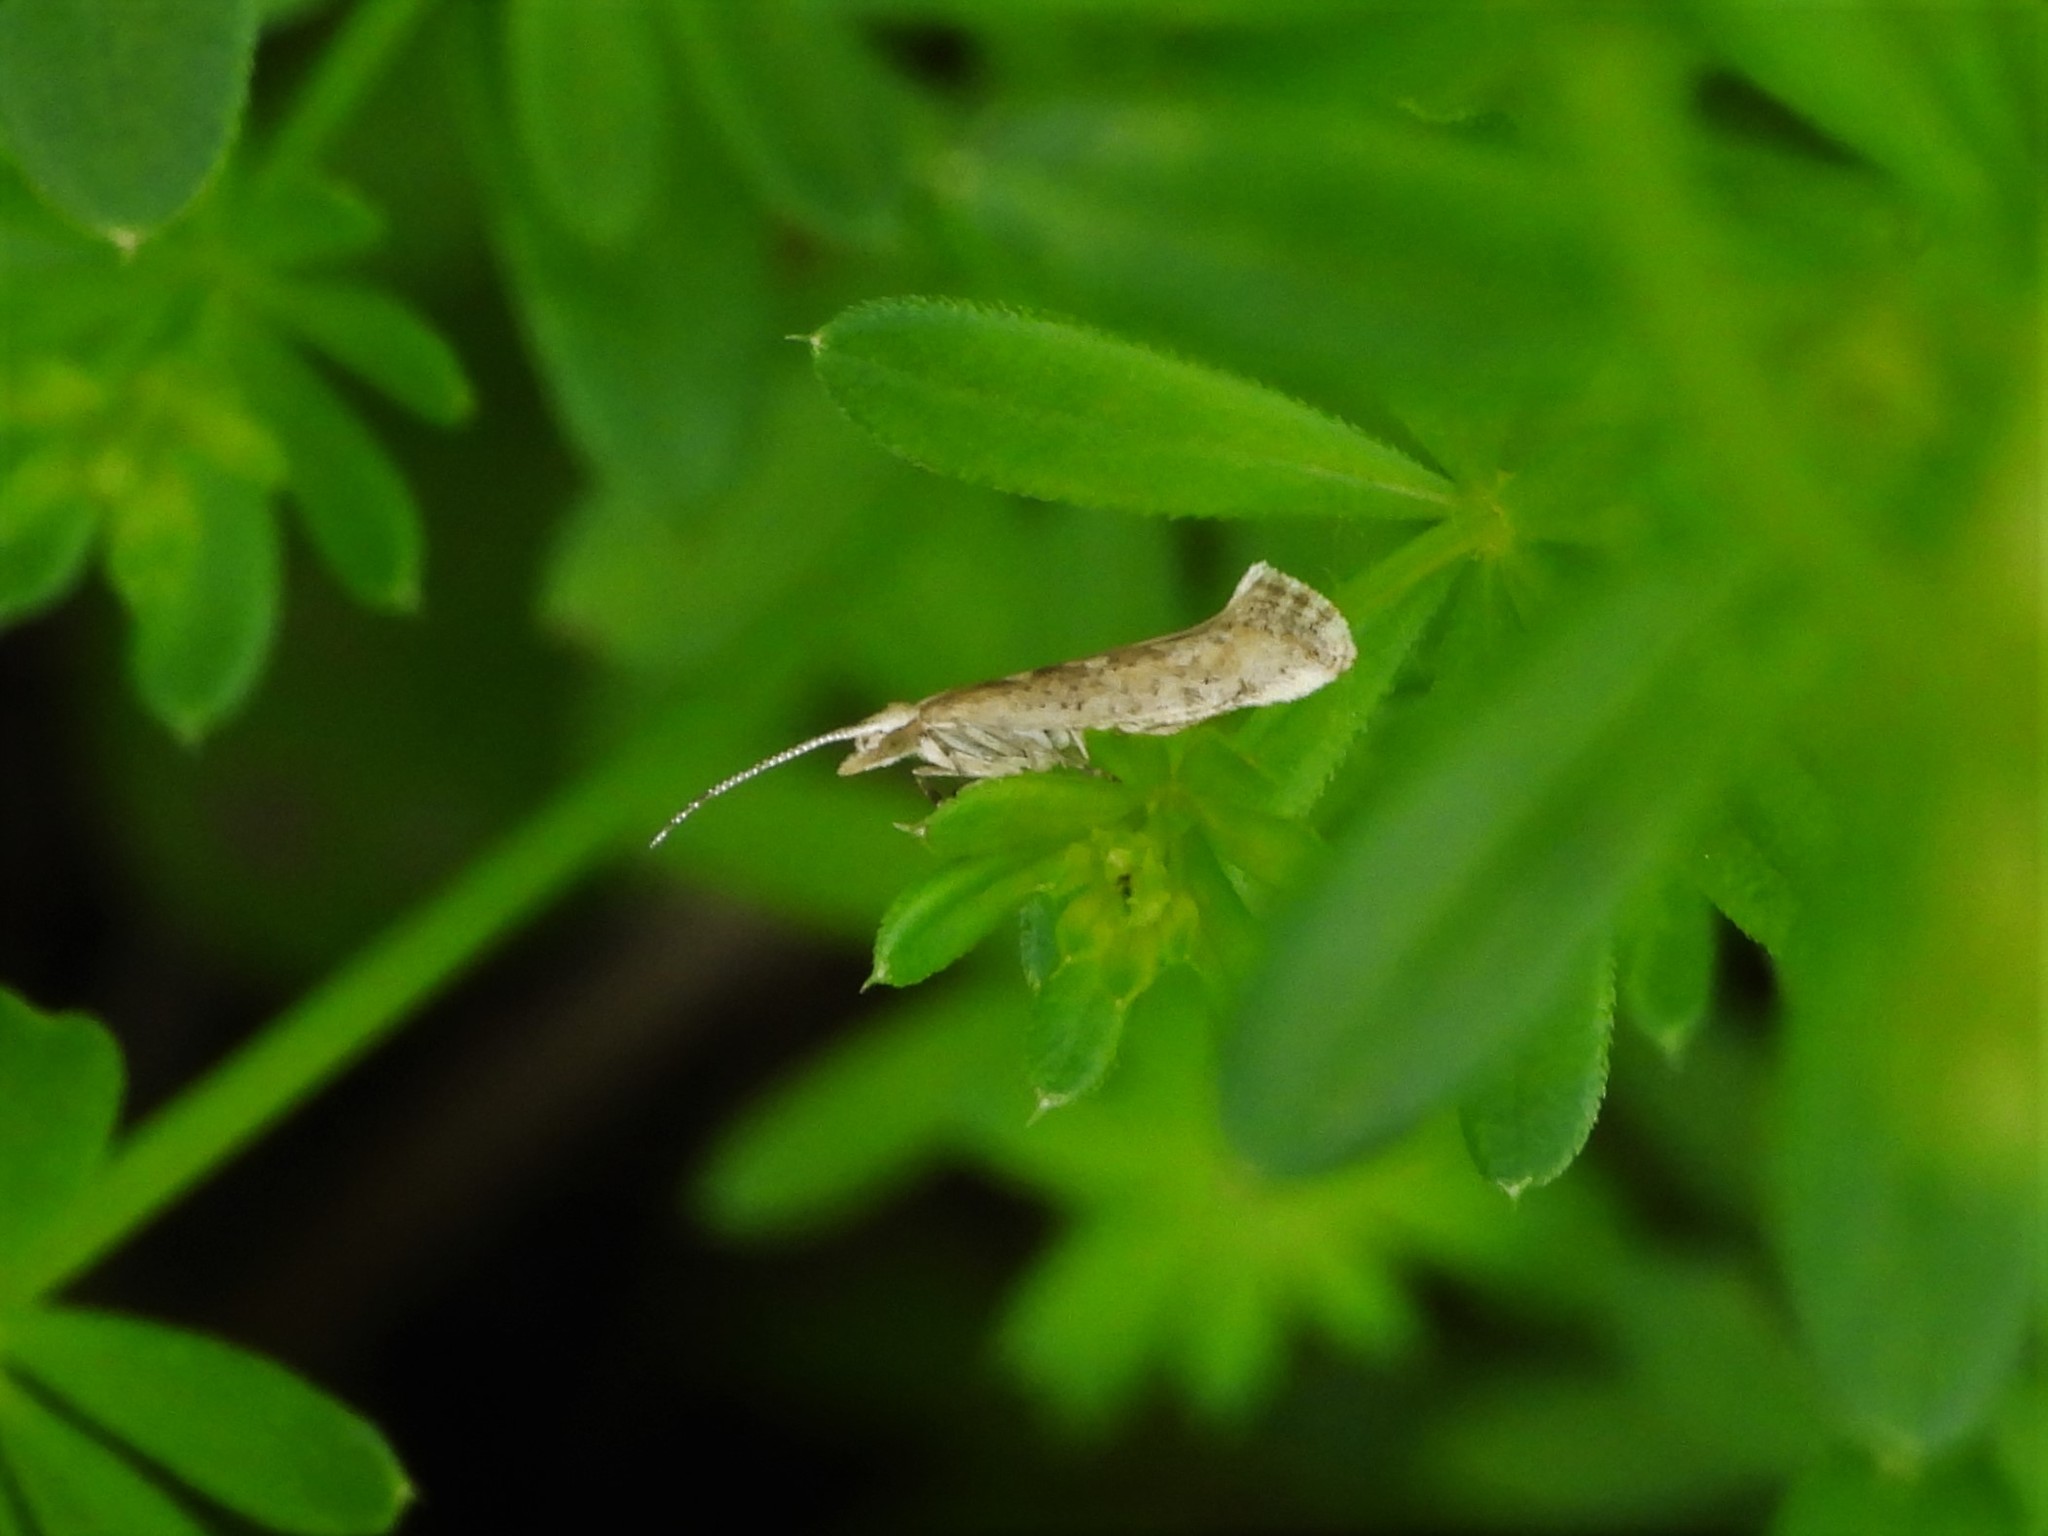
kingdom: Animalia
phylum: Arthropoda
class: Insecta
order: Lepidoptera
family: Plutellidae
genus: Plutella
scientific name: Plutella xylostella
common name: Diamond-back moth
